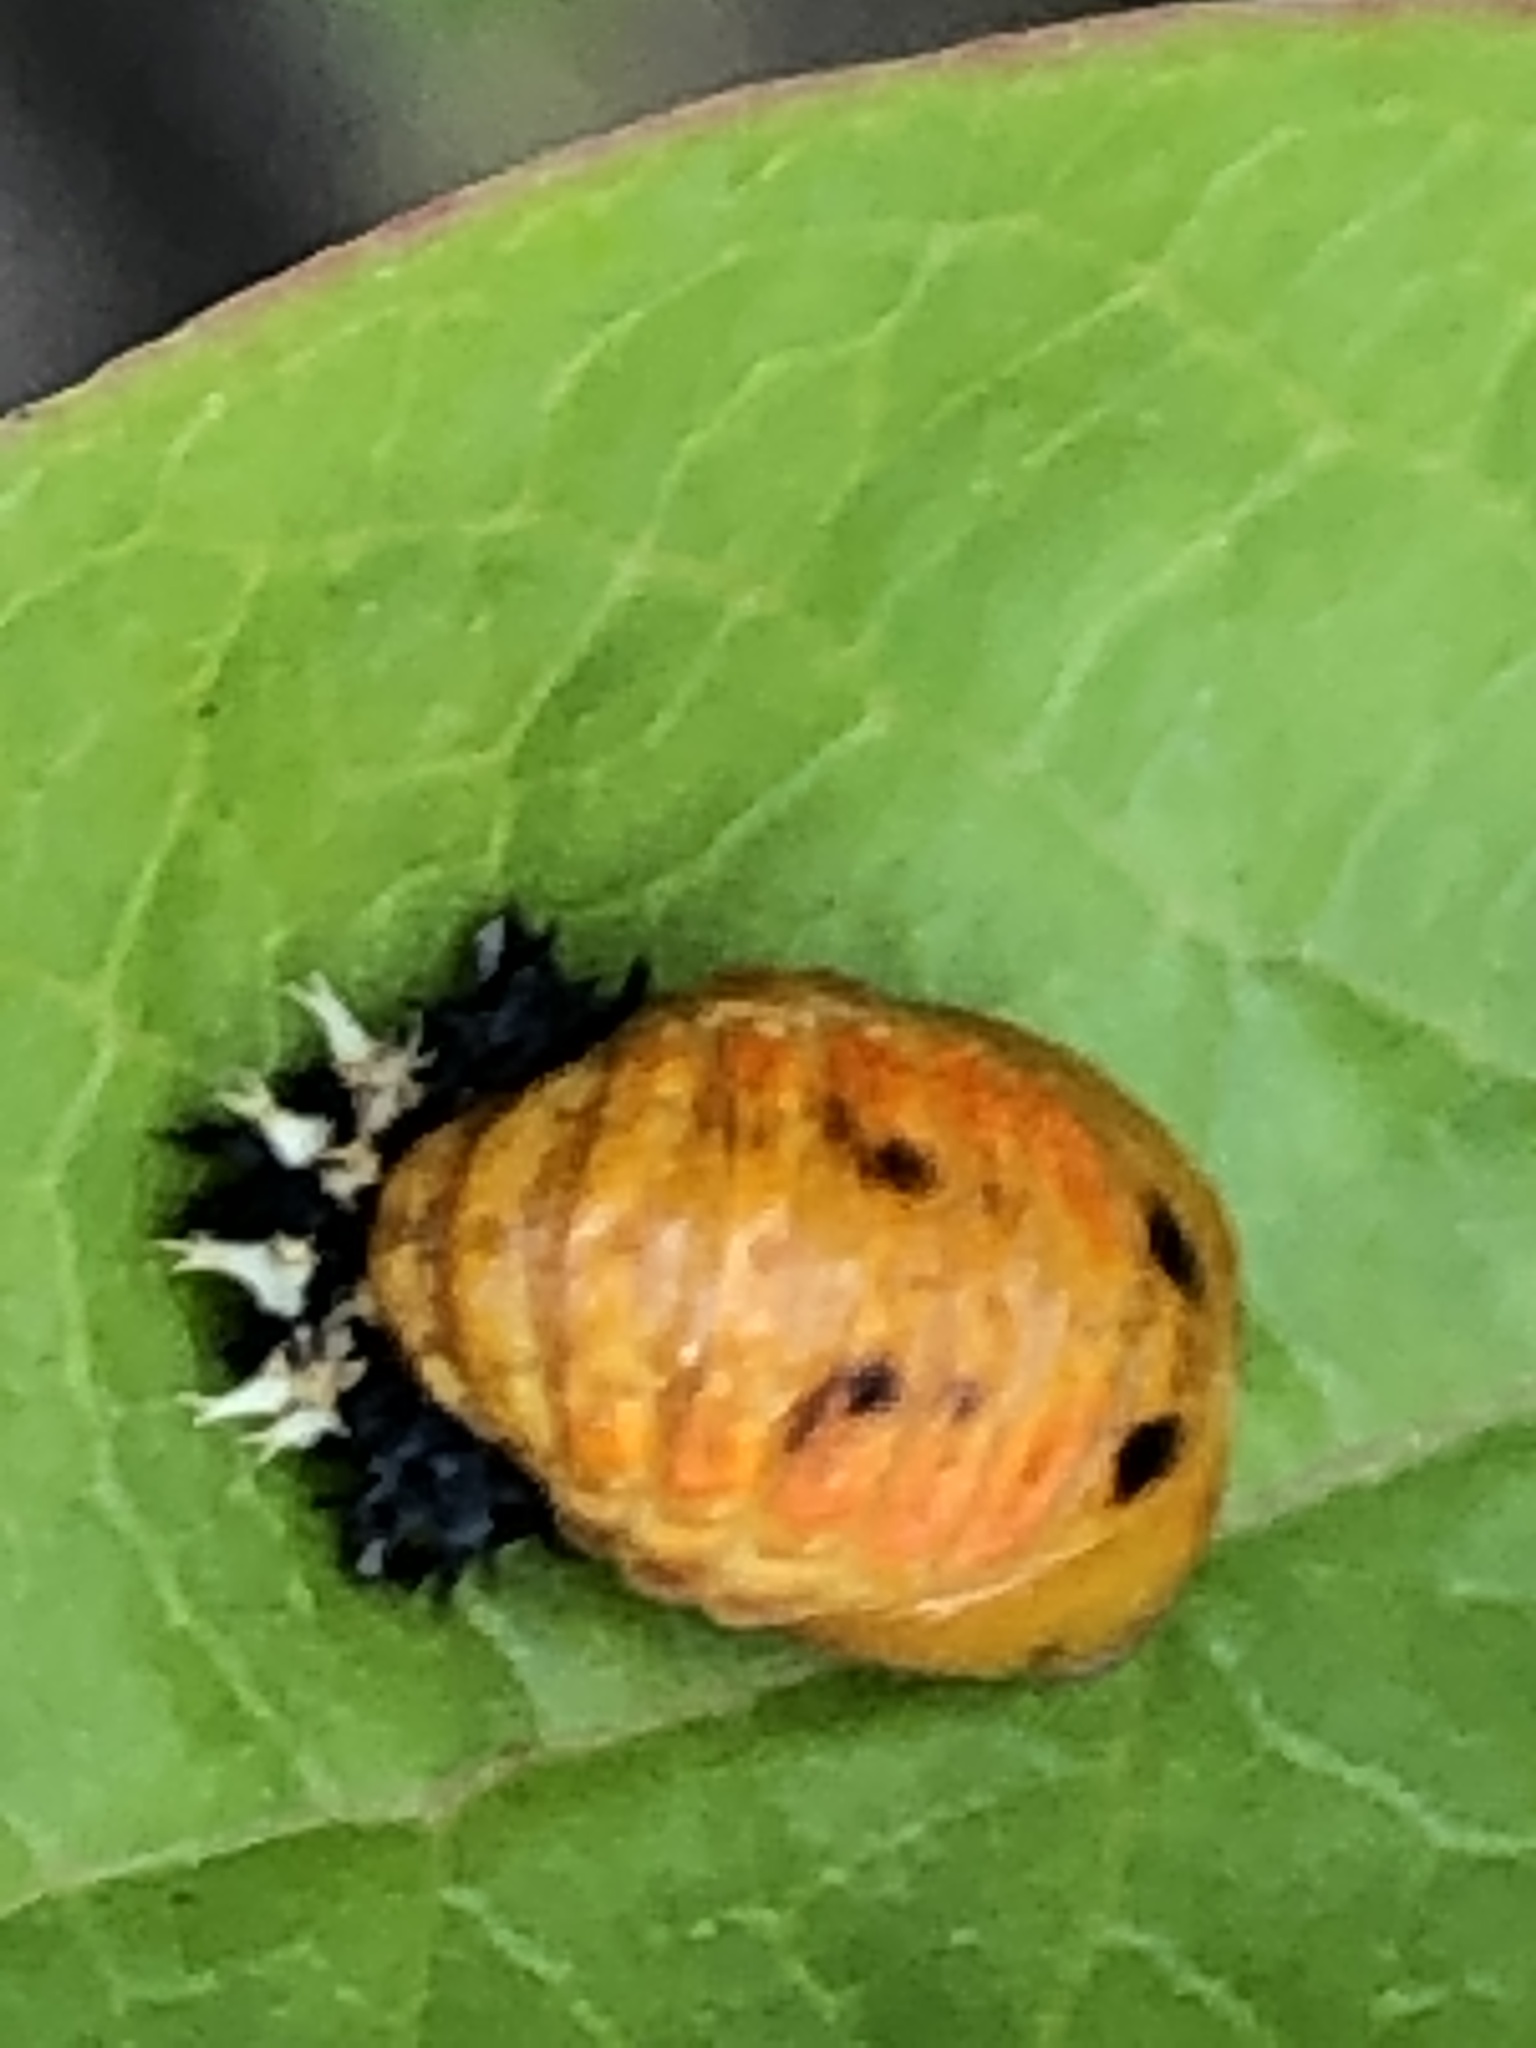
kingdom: Animalia
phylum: Arthropoda
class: Insecta
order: Coleoptera
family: Coccinellidae
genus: Harmonia
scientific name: Harmonia axyridis
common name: Harlequin ladybird
